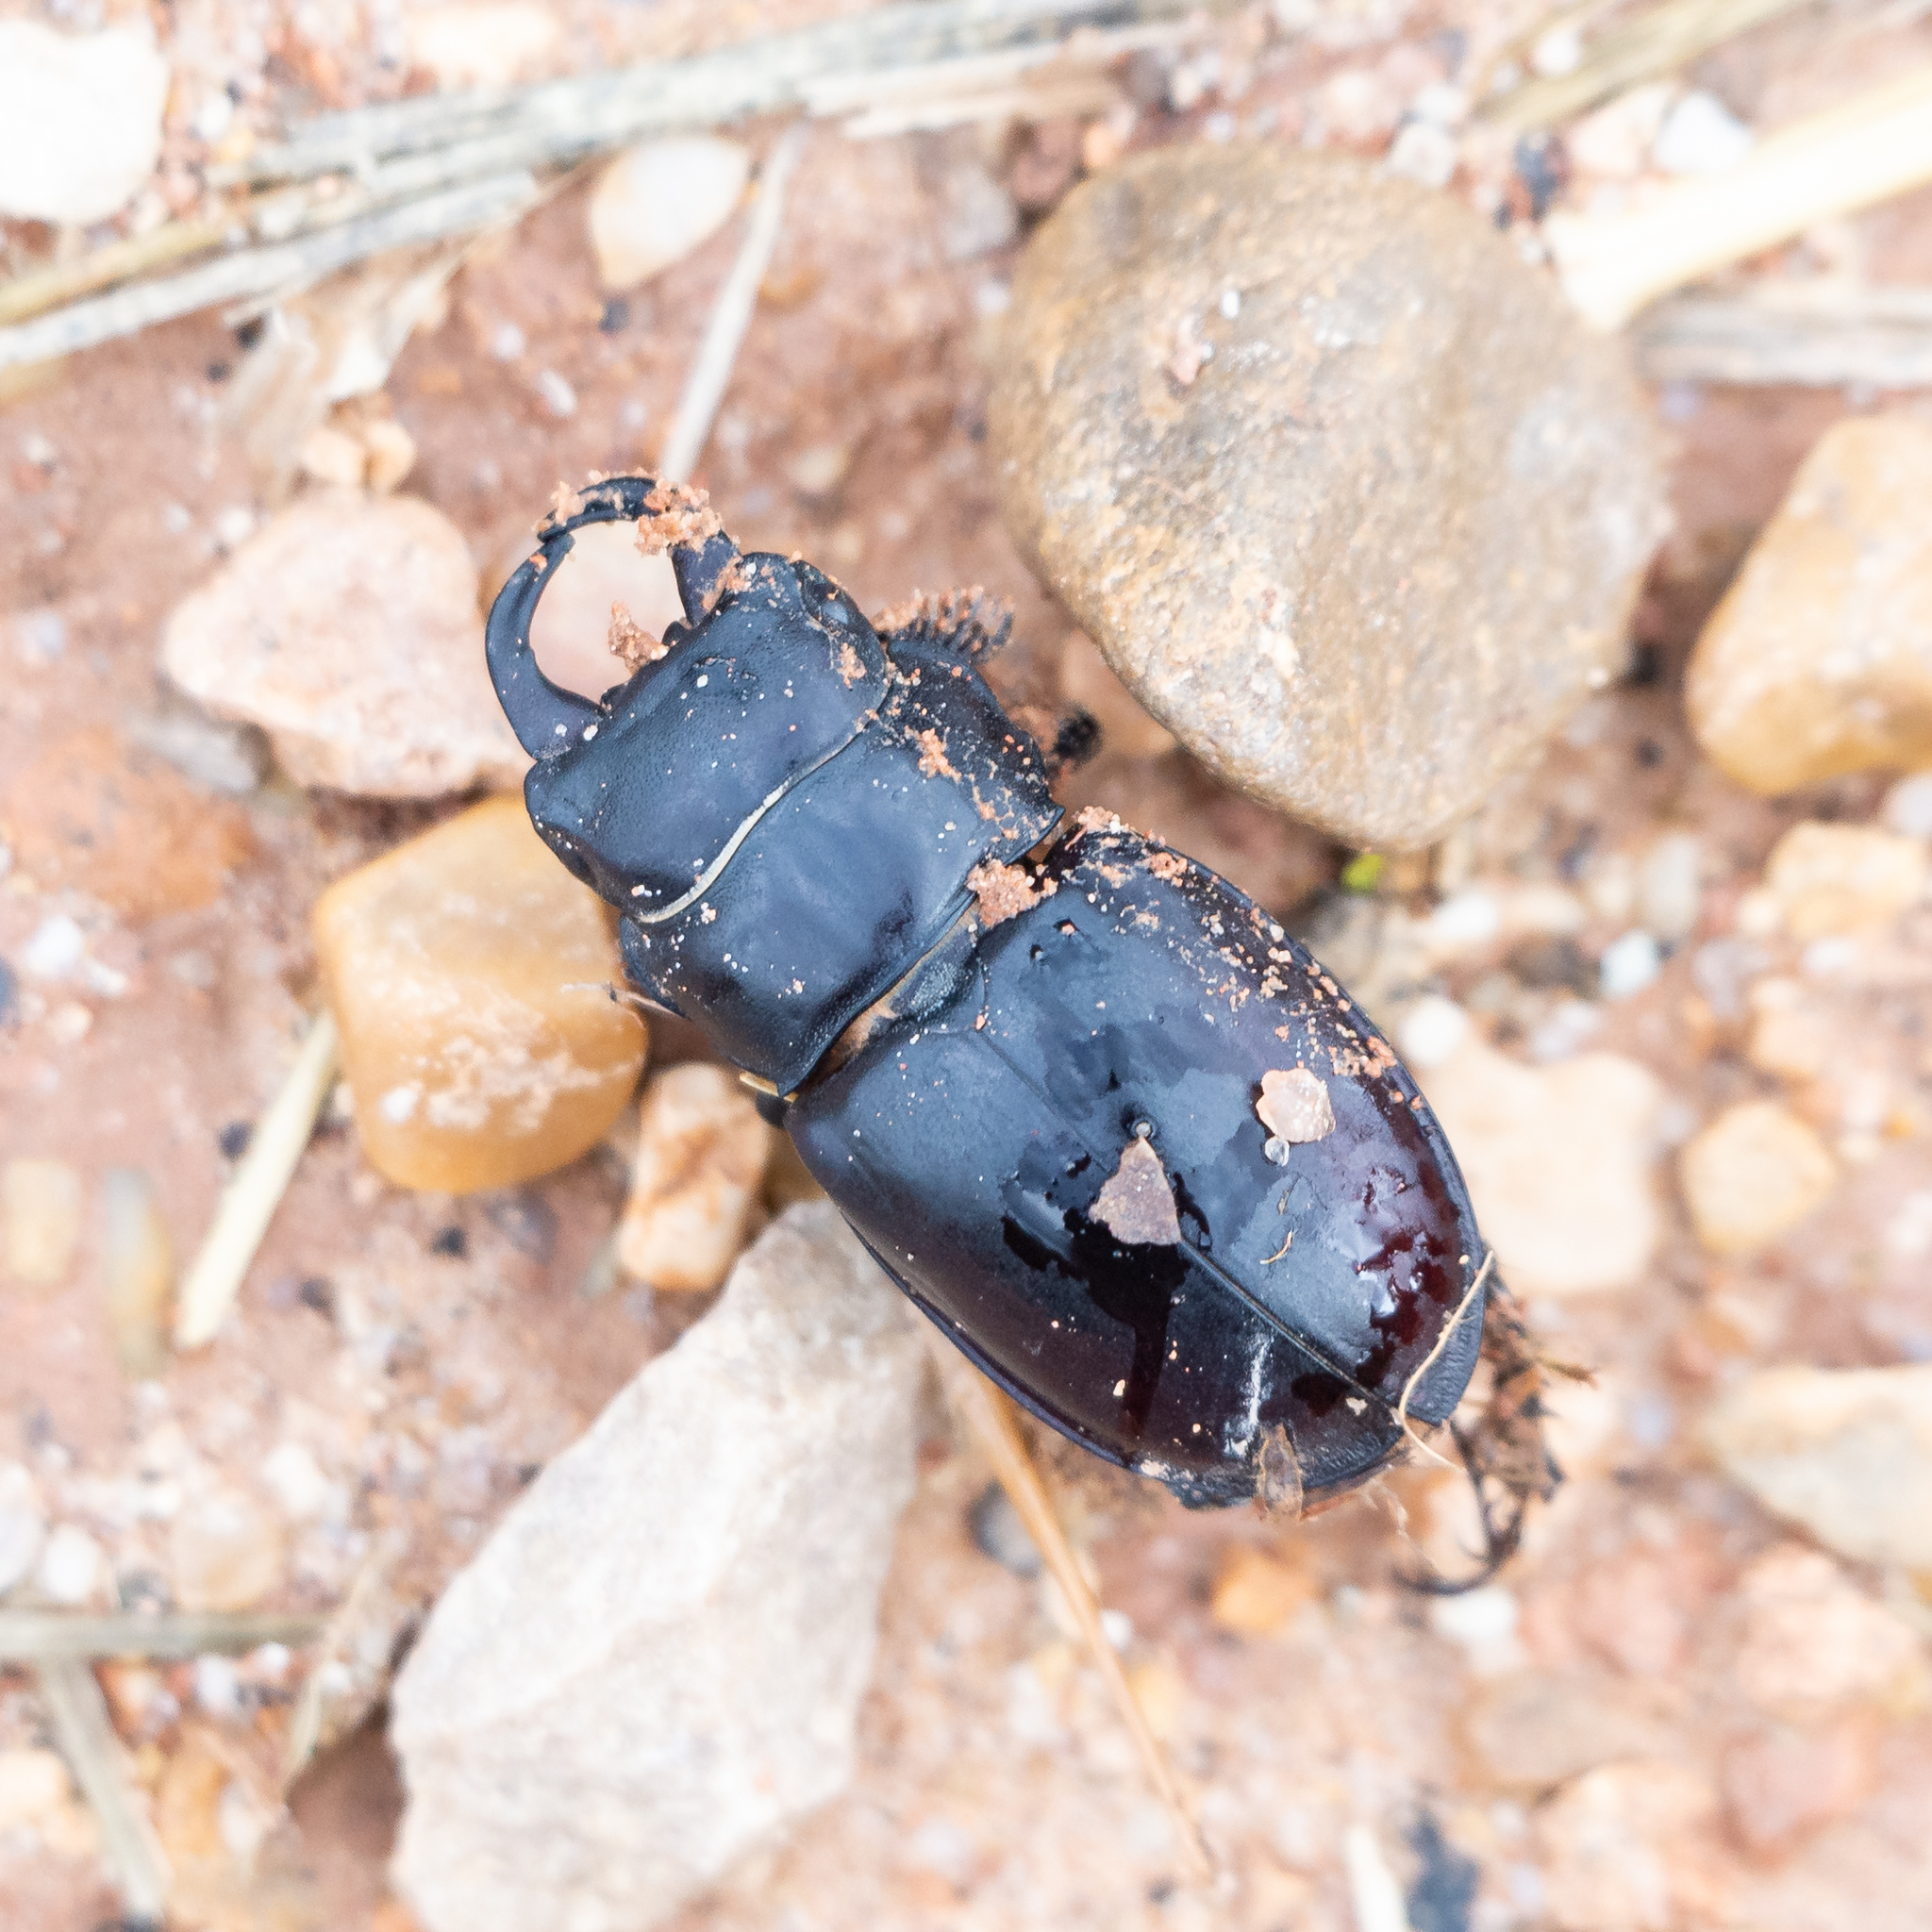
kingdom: Animalia
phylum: Arthropoda
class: Insecta
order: Coleoptera
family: Lucanidae
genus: Lucanus
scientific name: Lucanus barbarossa
